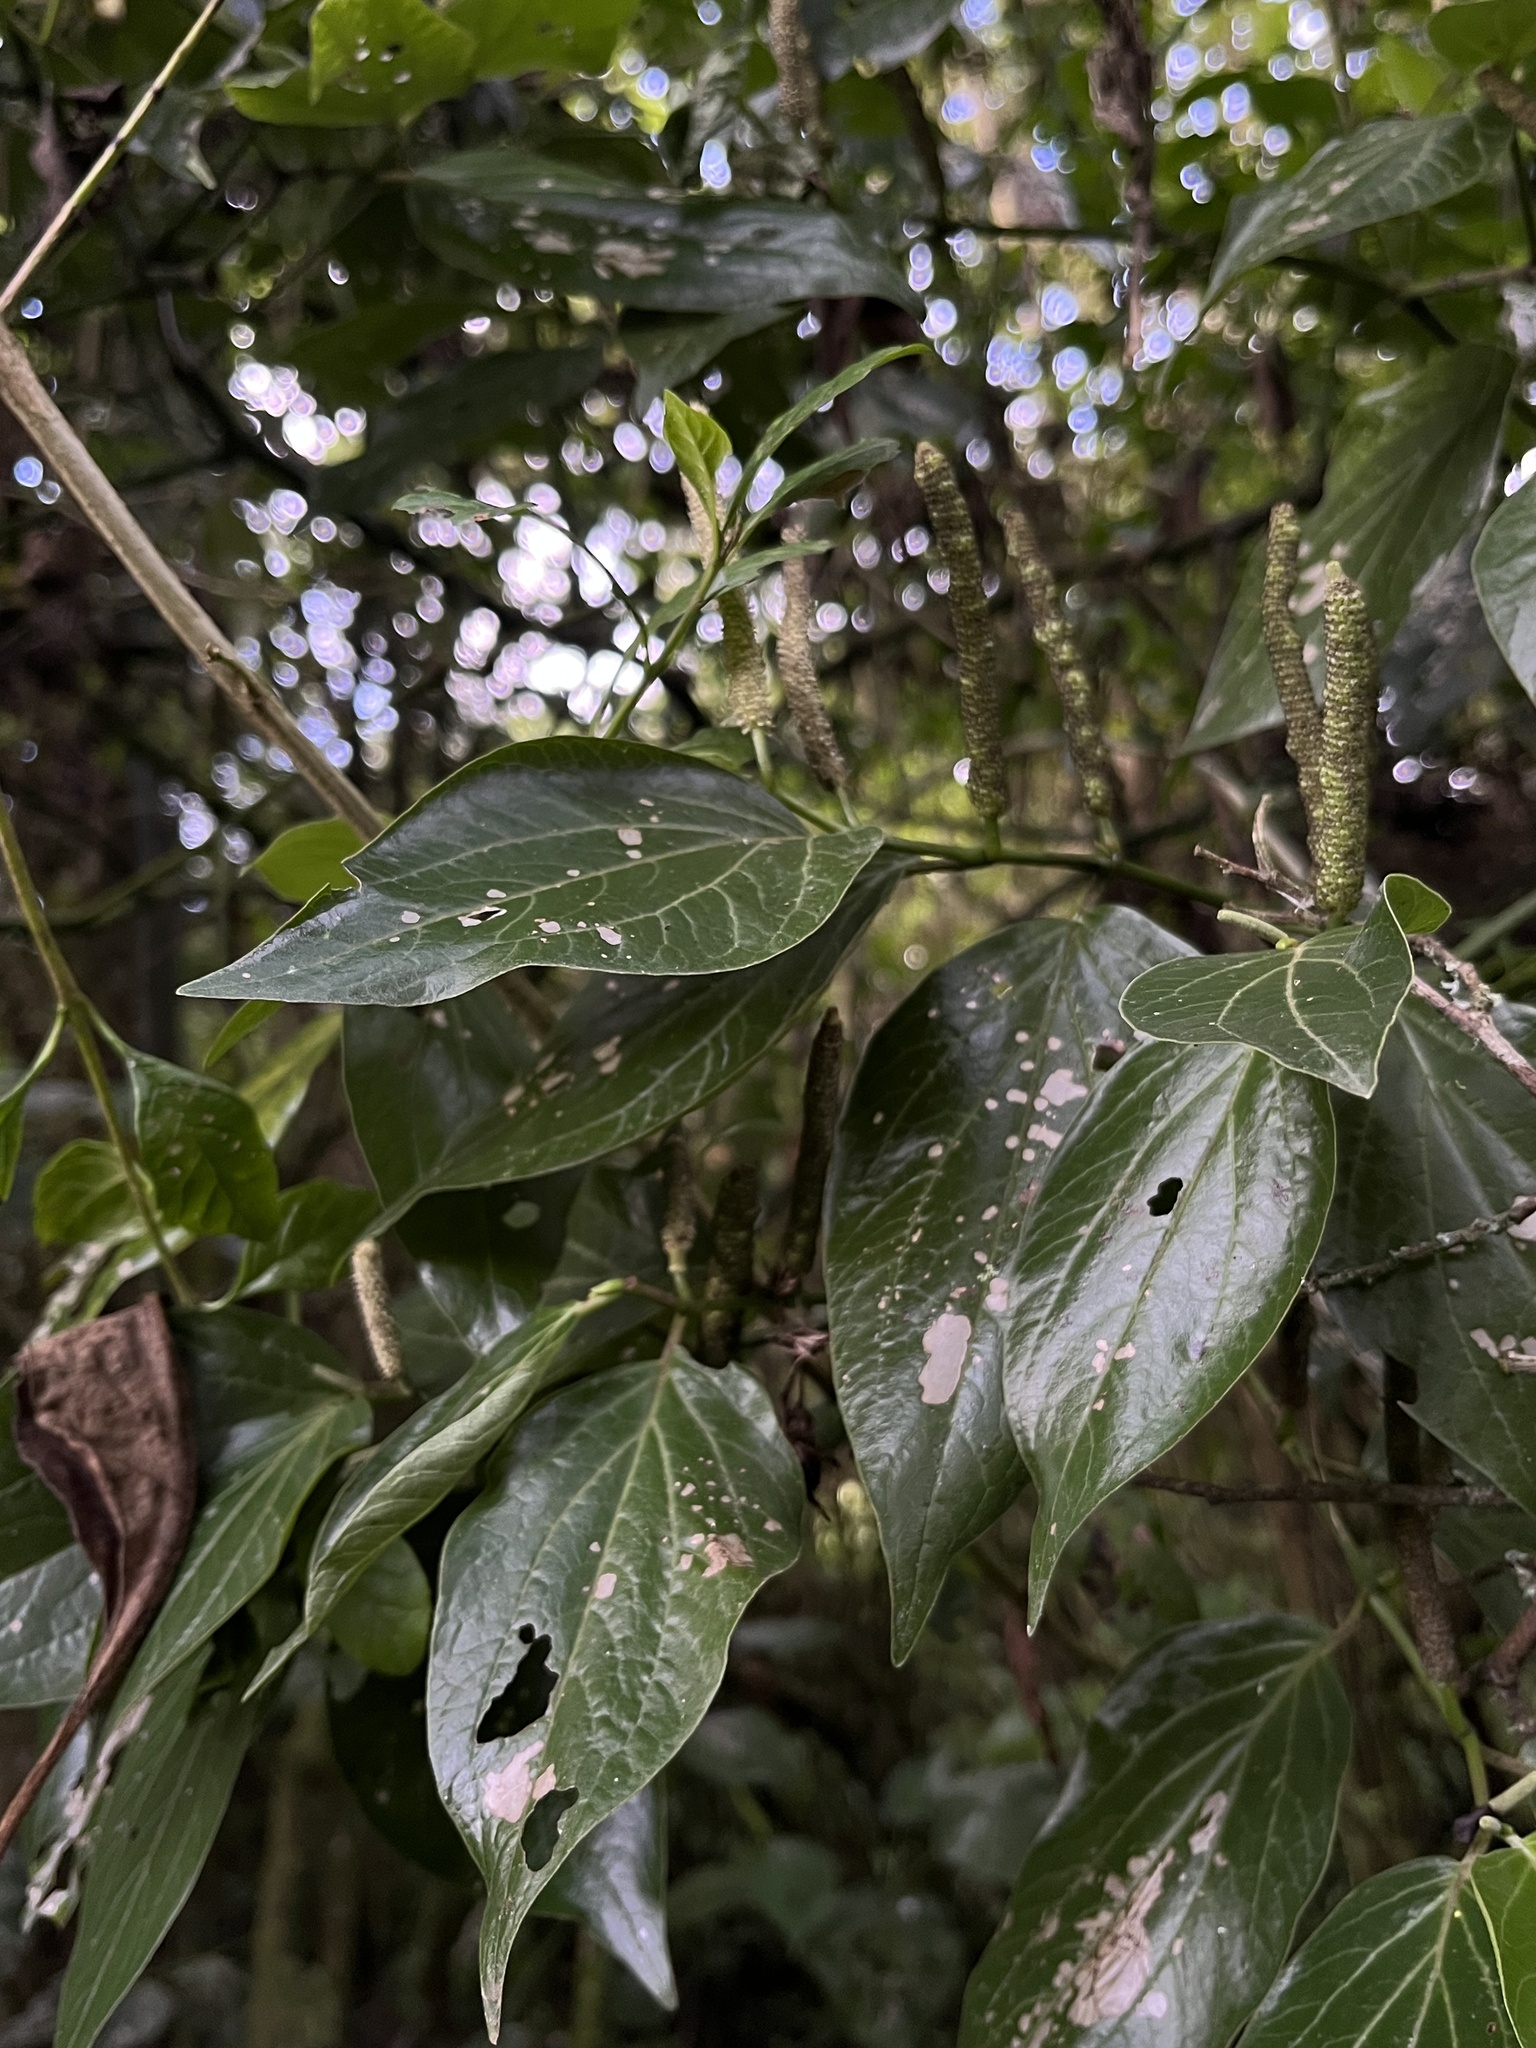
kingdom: Plantae
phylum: Tracheophyta
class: Magnoliopsida
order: Piperales
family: Piperaceae
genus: Piper
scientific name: Piper barbatum
